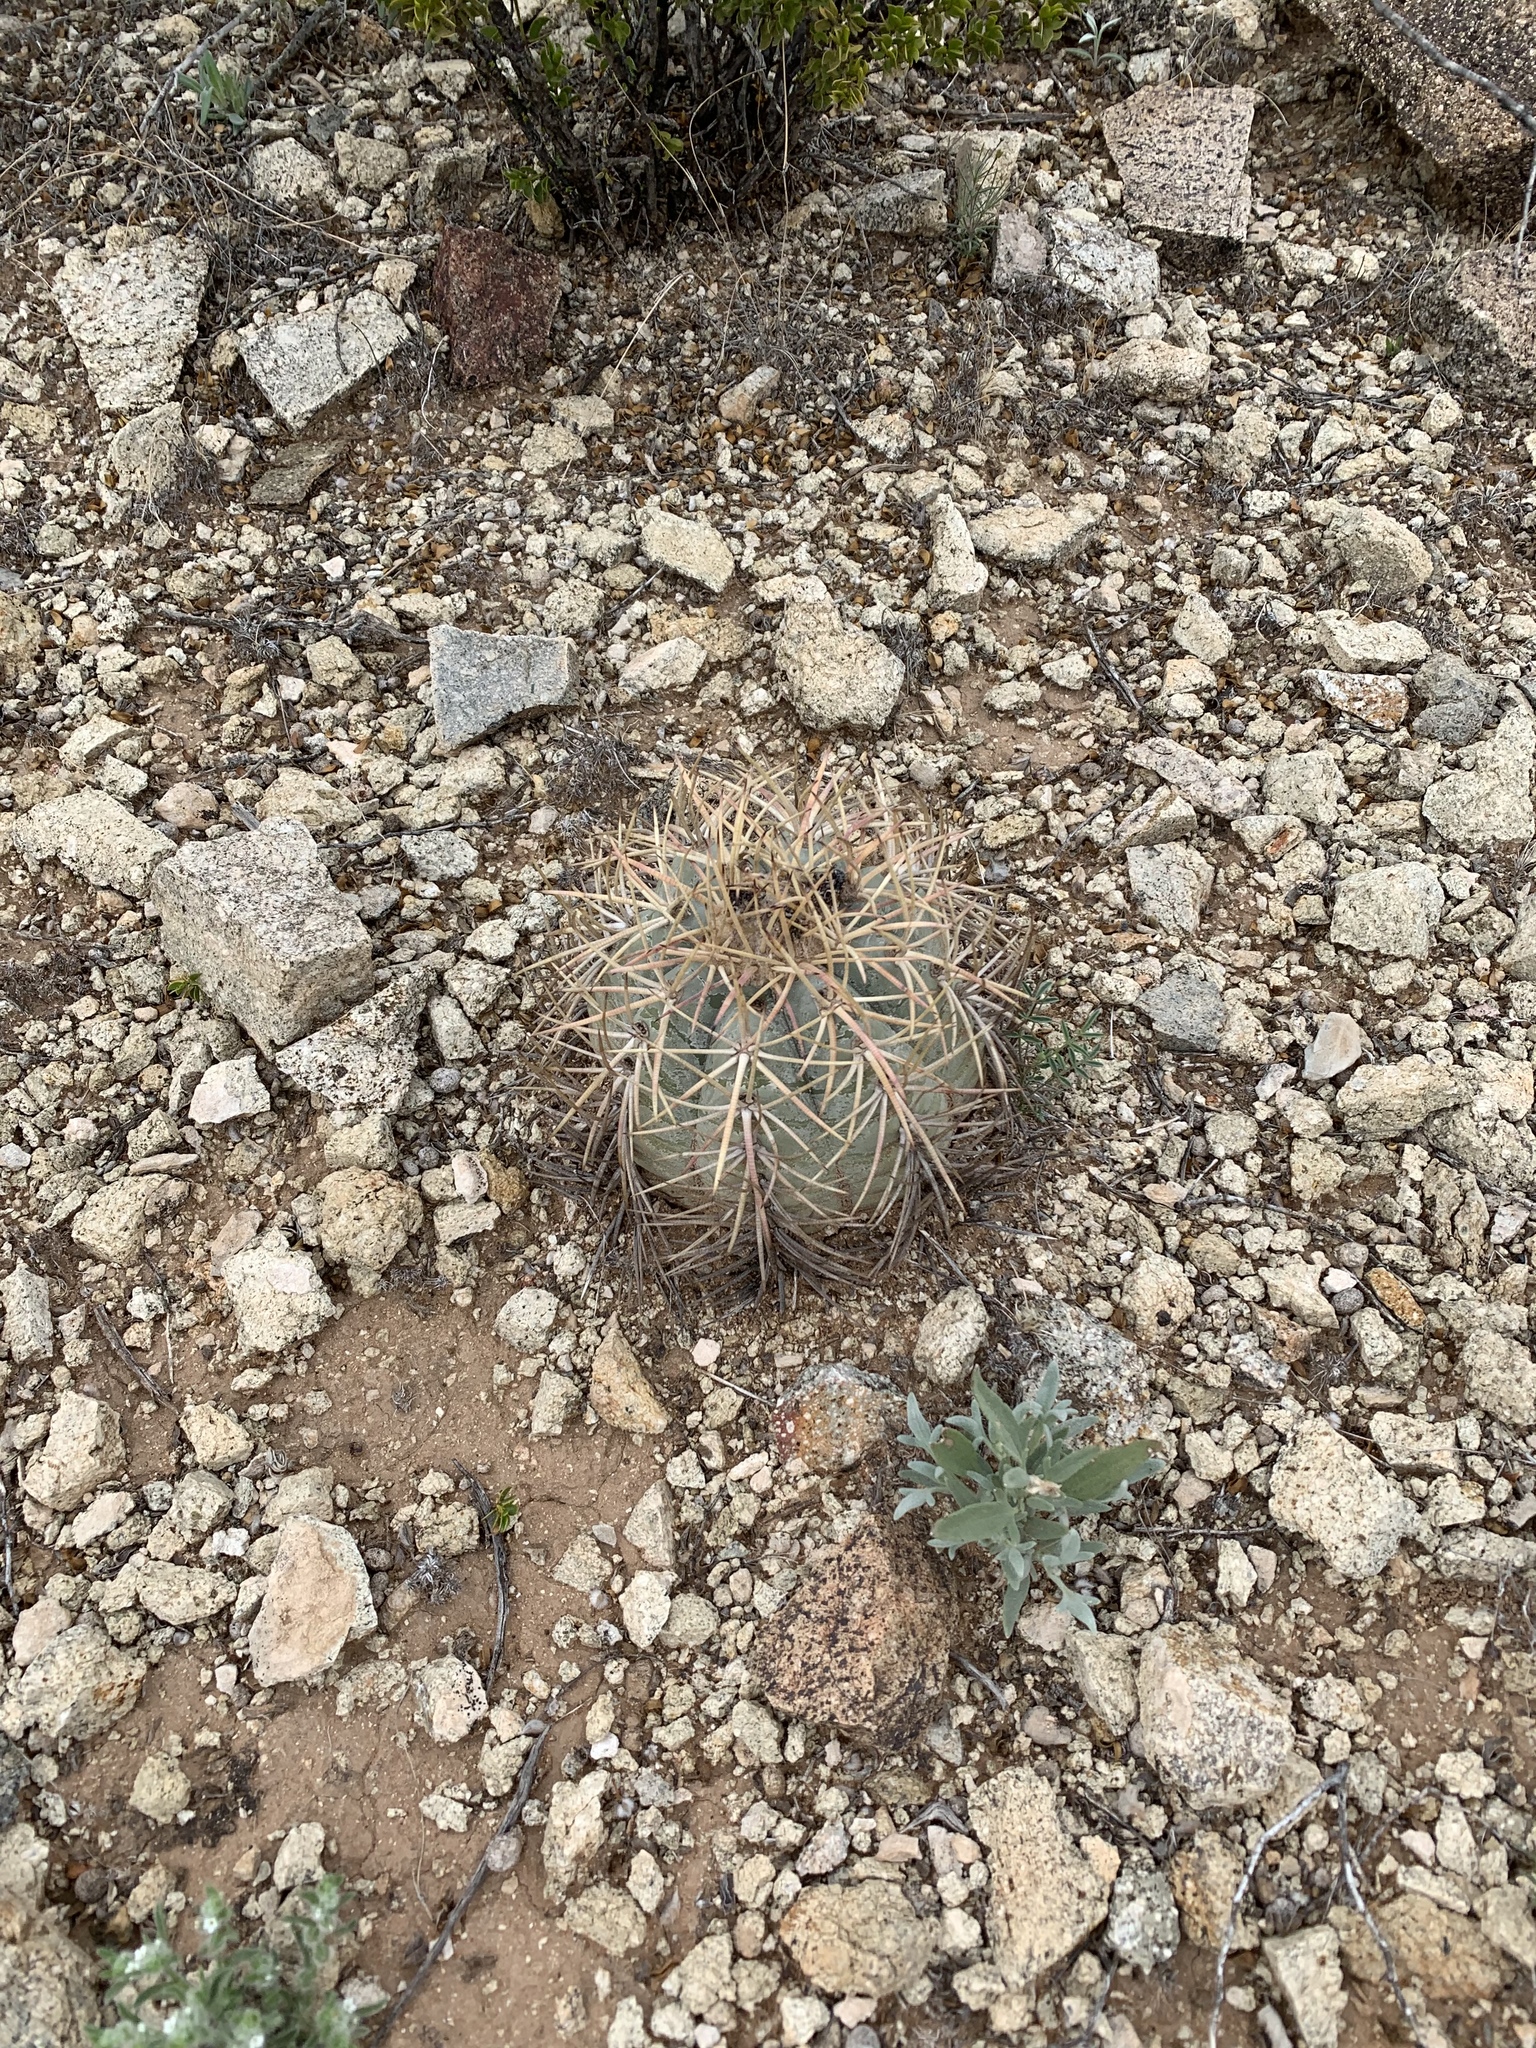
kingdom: Plantae
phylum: Tracheophyta
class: Magnoliopsida
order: Caryophyllales
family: Cactaceae
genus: Echinocactus
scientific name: Echinocactus horizonthalonius
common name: Devilshead
